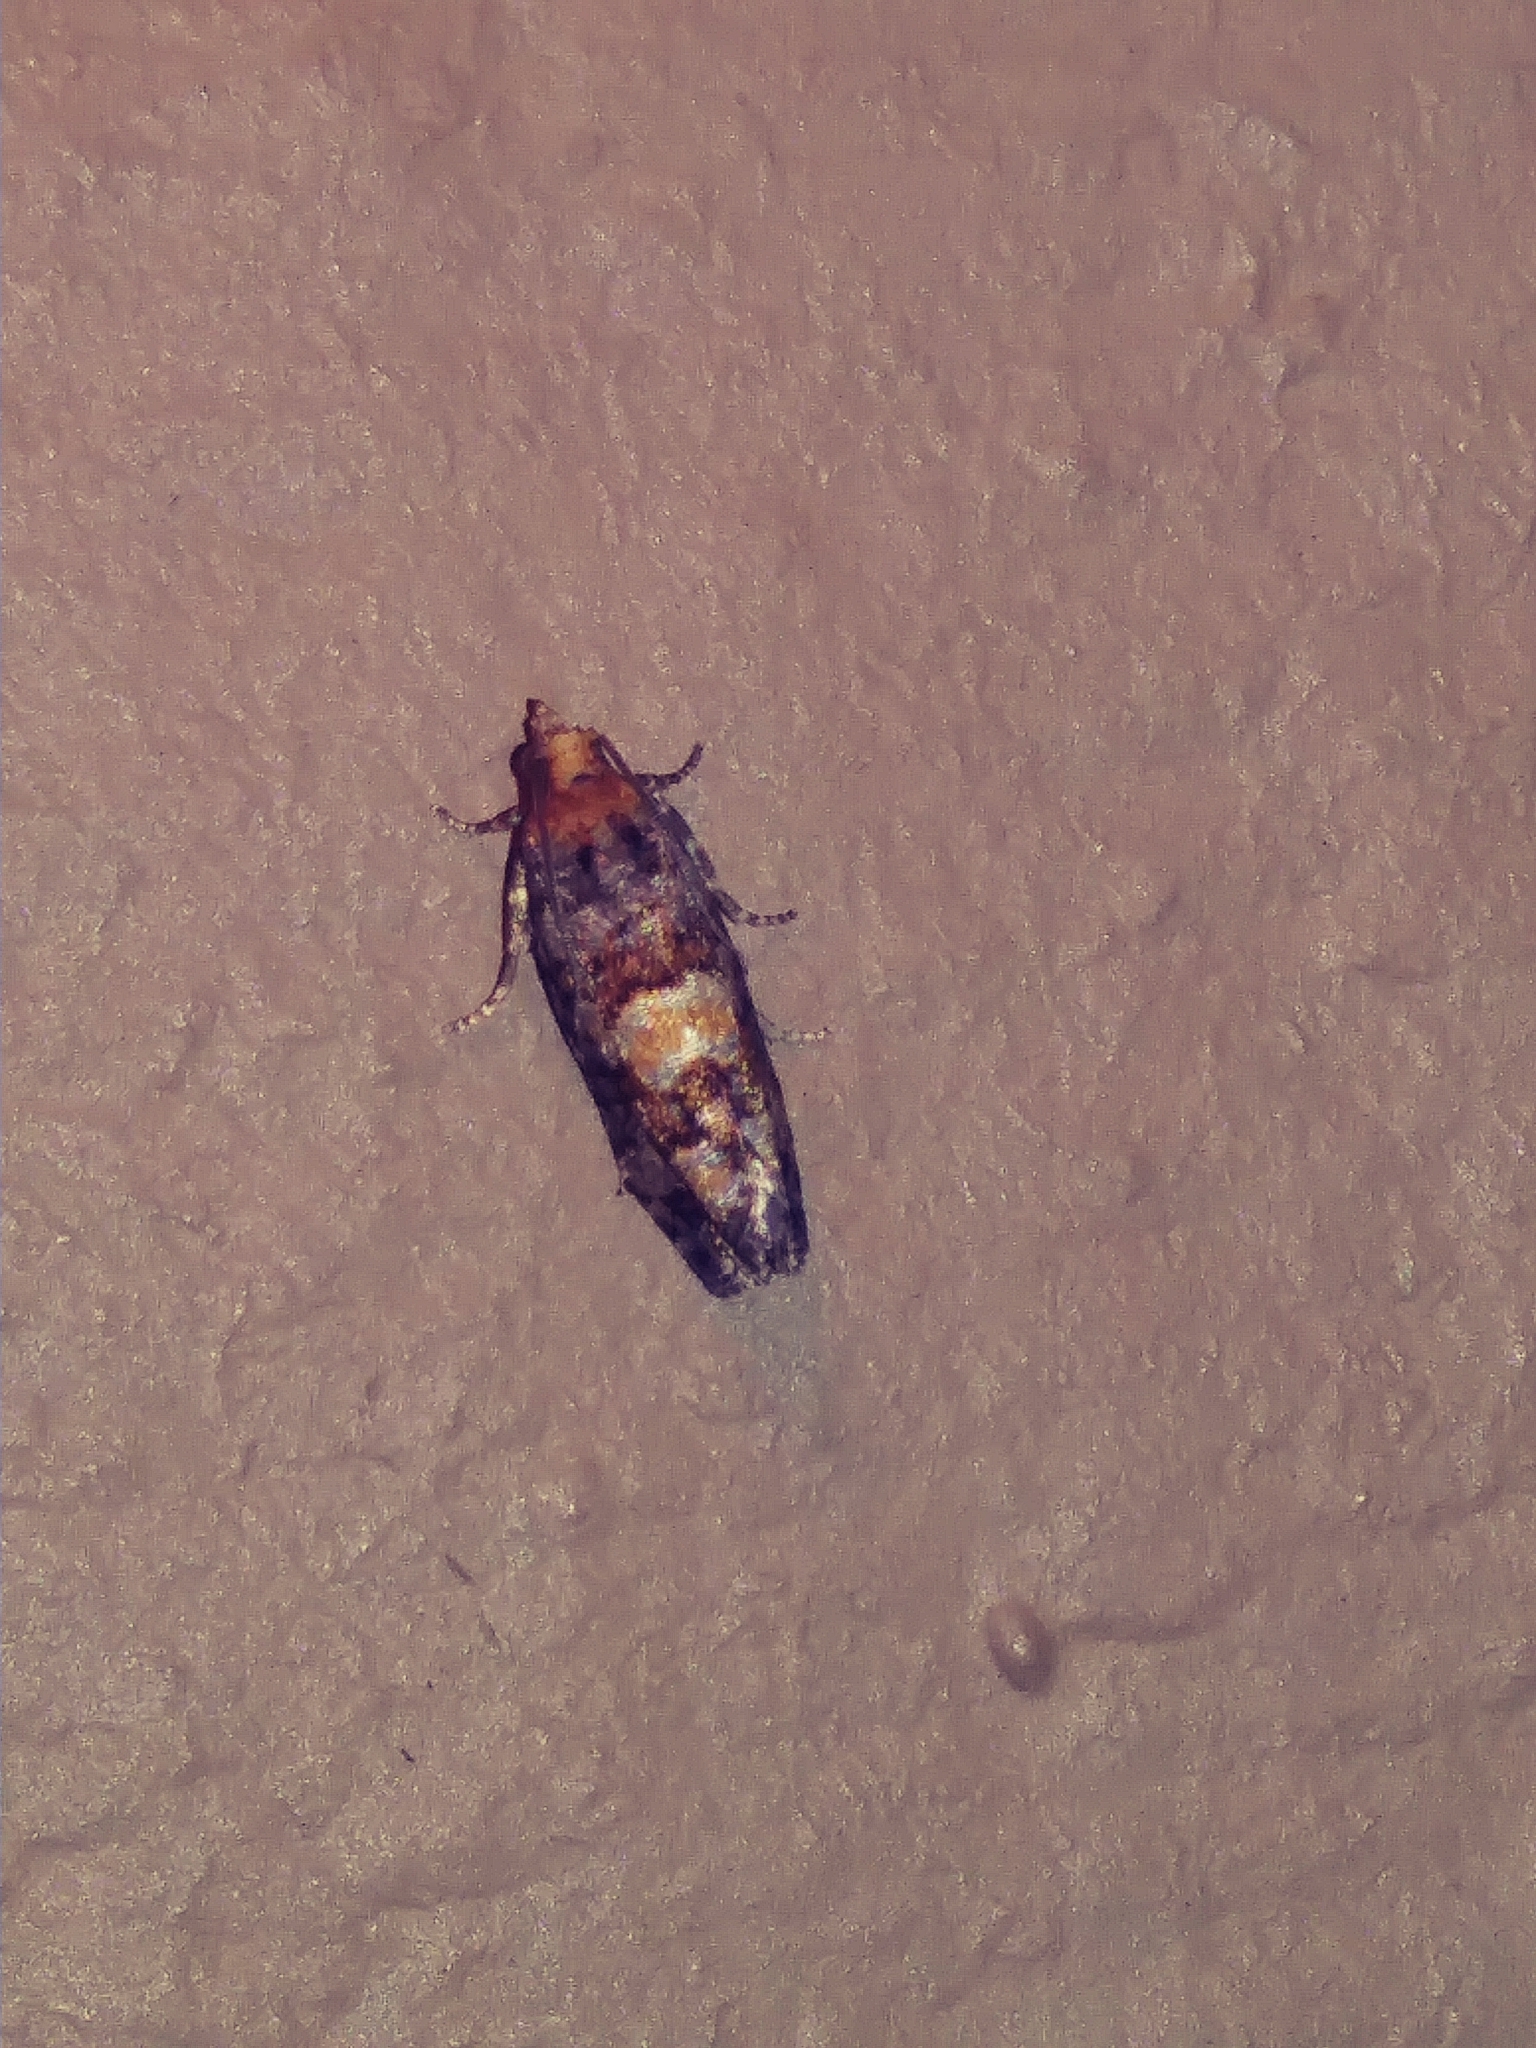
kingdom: Animalia
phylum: Arthropoda
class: Insecta
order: Lepidoptera
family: Tortricidae
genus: Eucopina
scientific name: Eucopina tocullionana
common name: White pinecone borer moth
